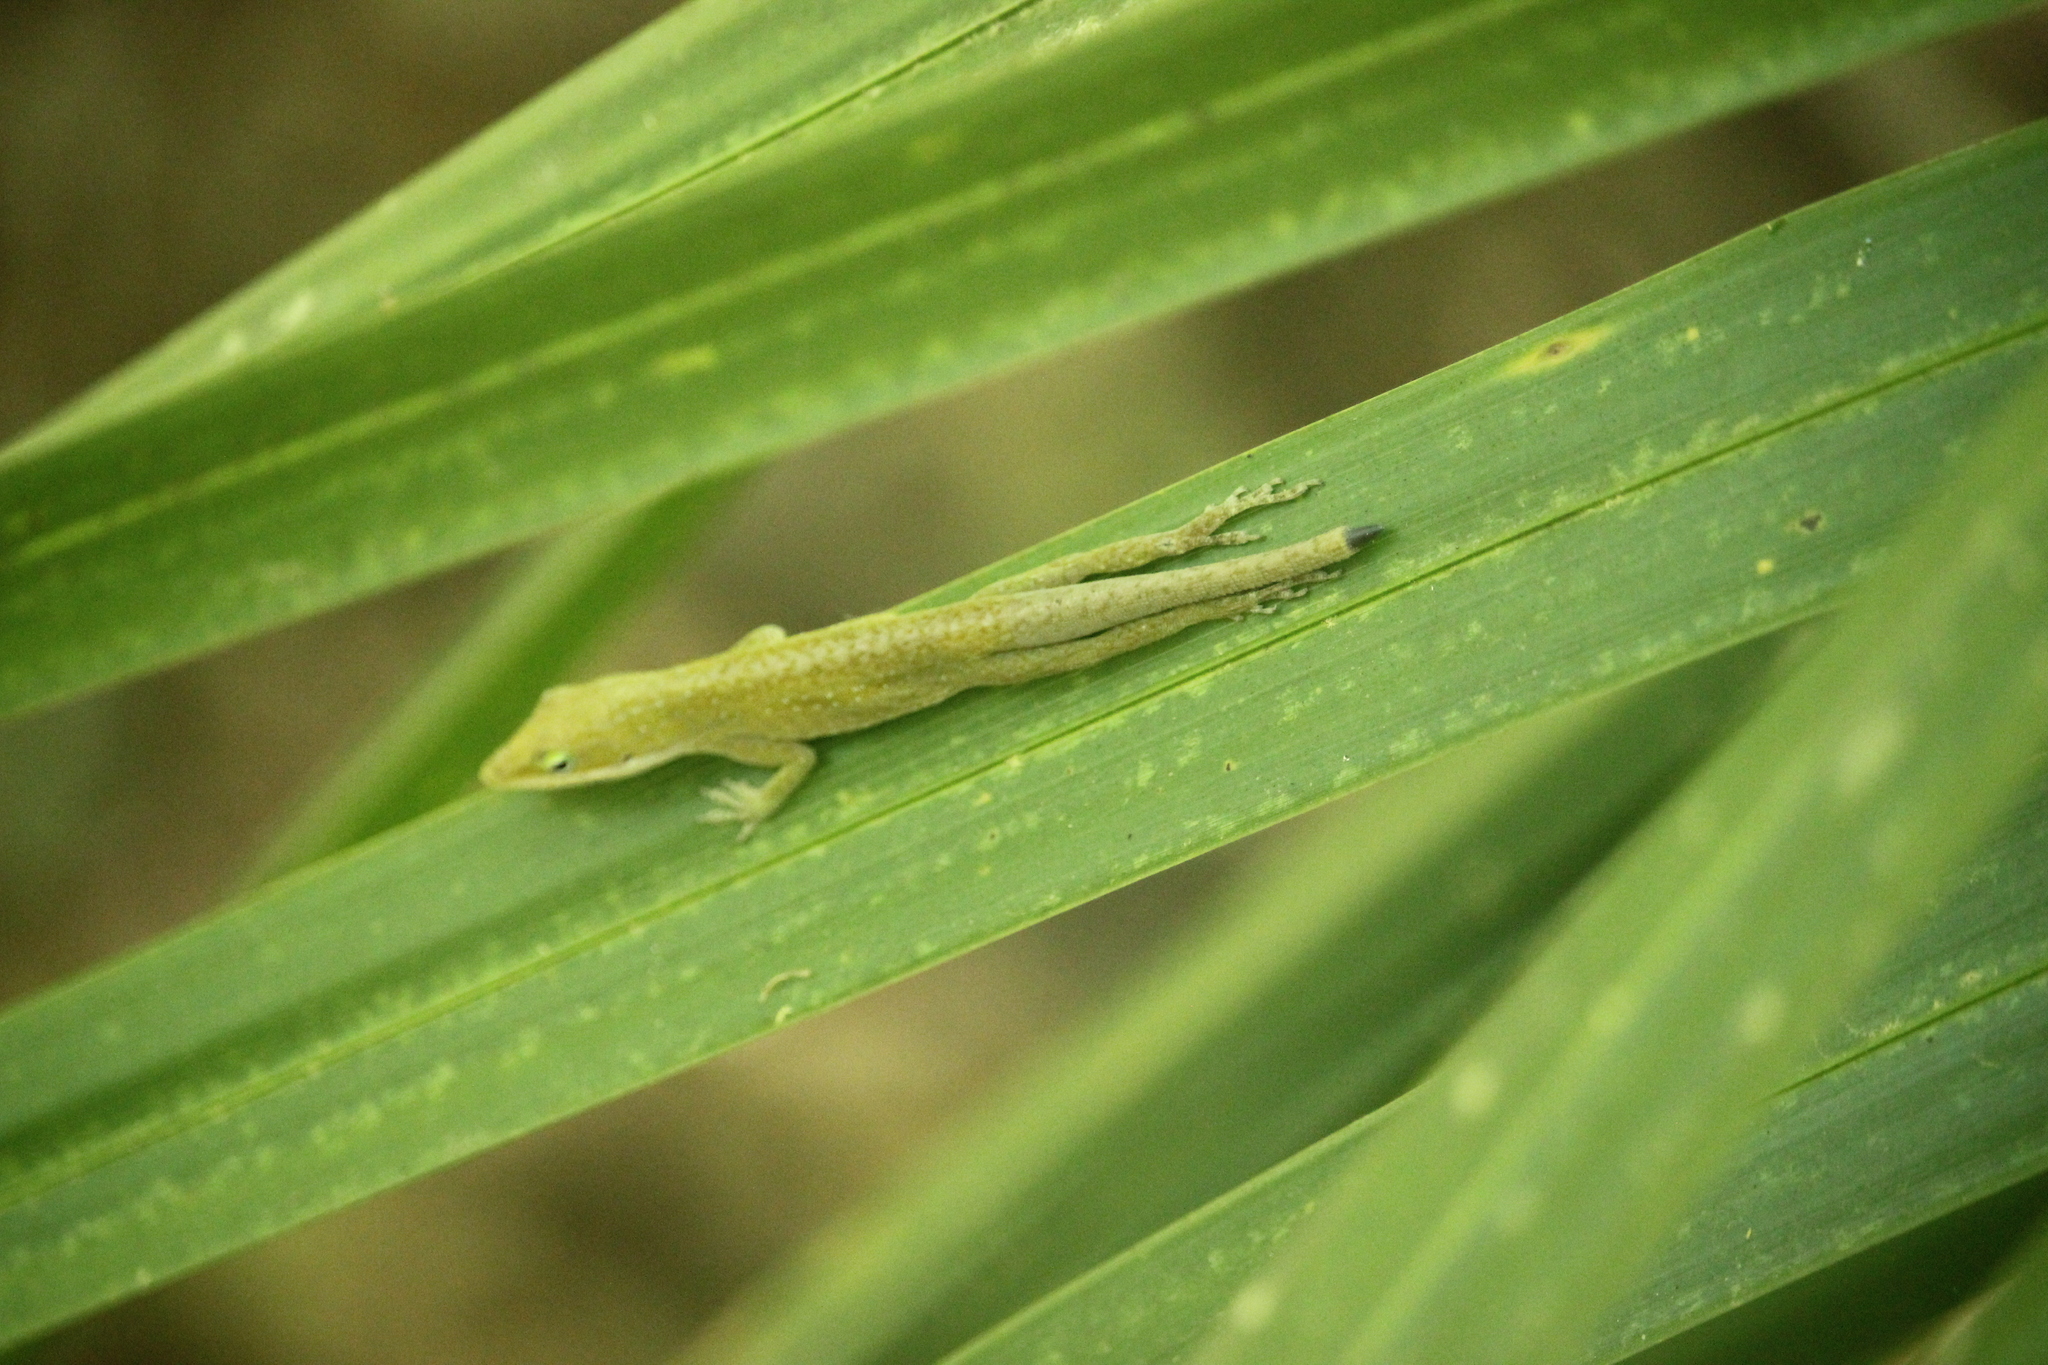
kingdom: Animalia
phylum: Chordata
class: Squamata
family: Dactyloidae
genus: Anolis
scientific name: Anolis carolinensis
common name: Green anole
